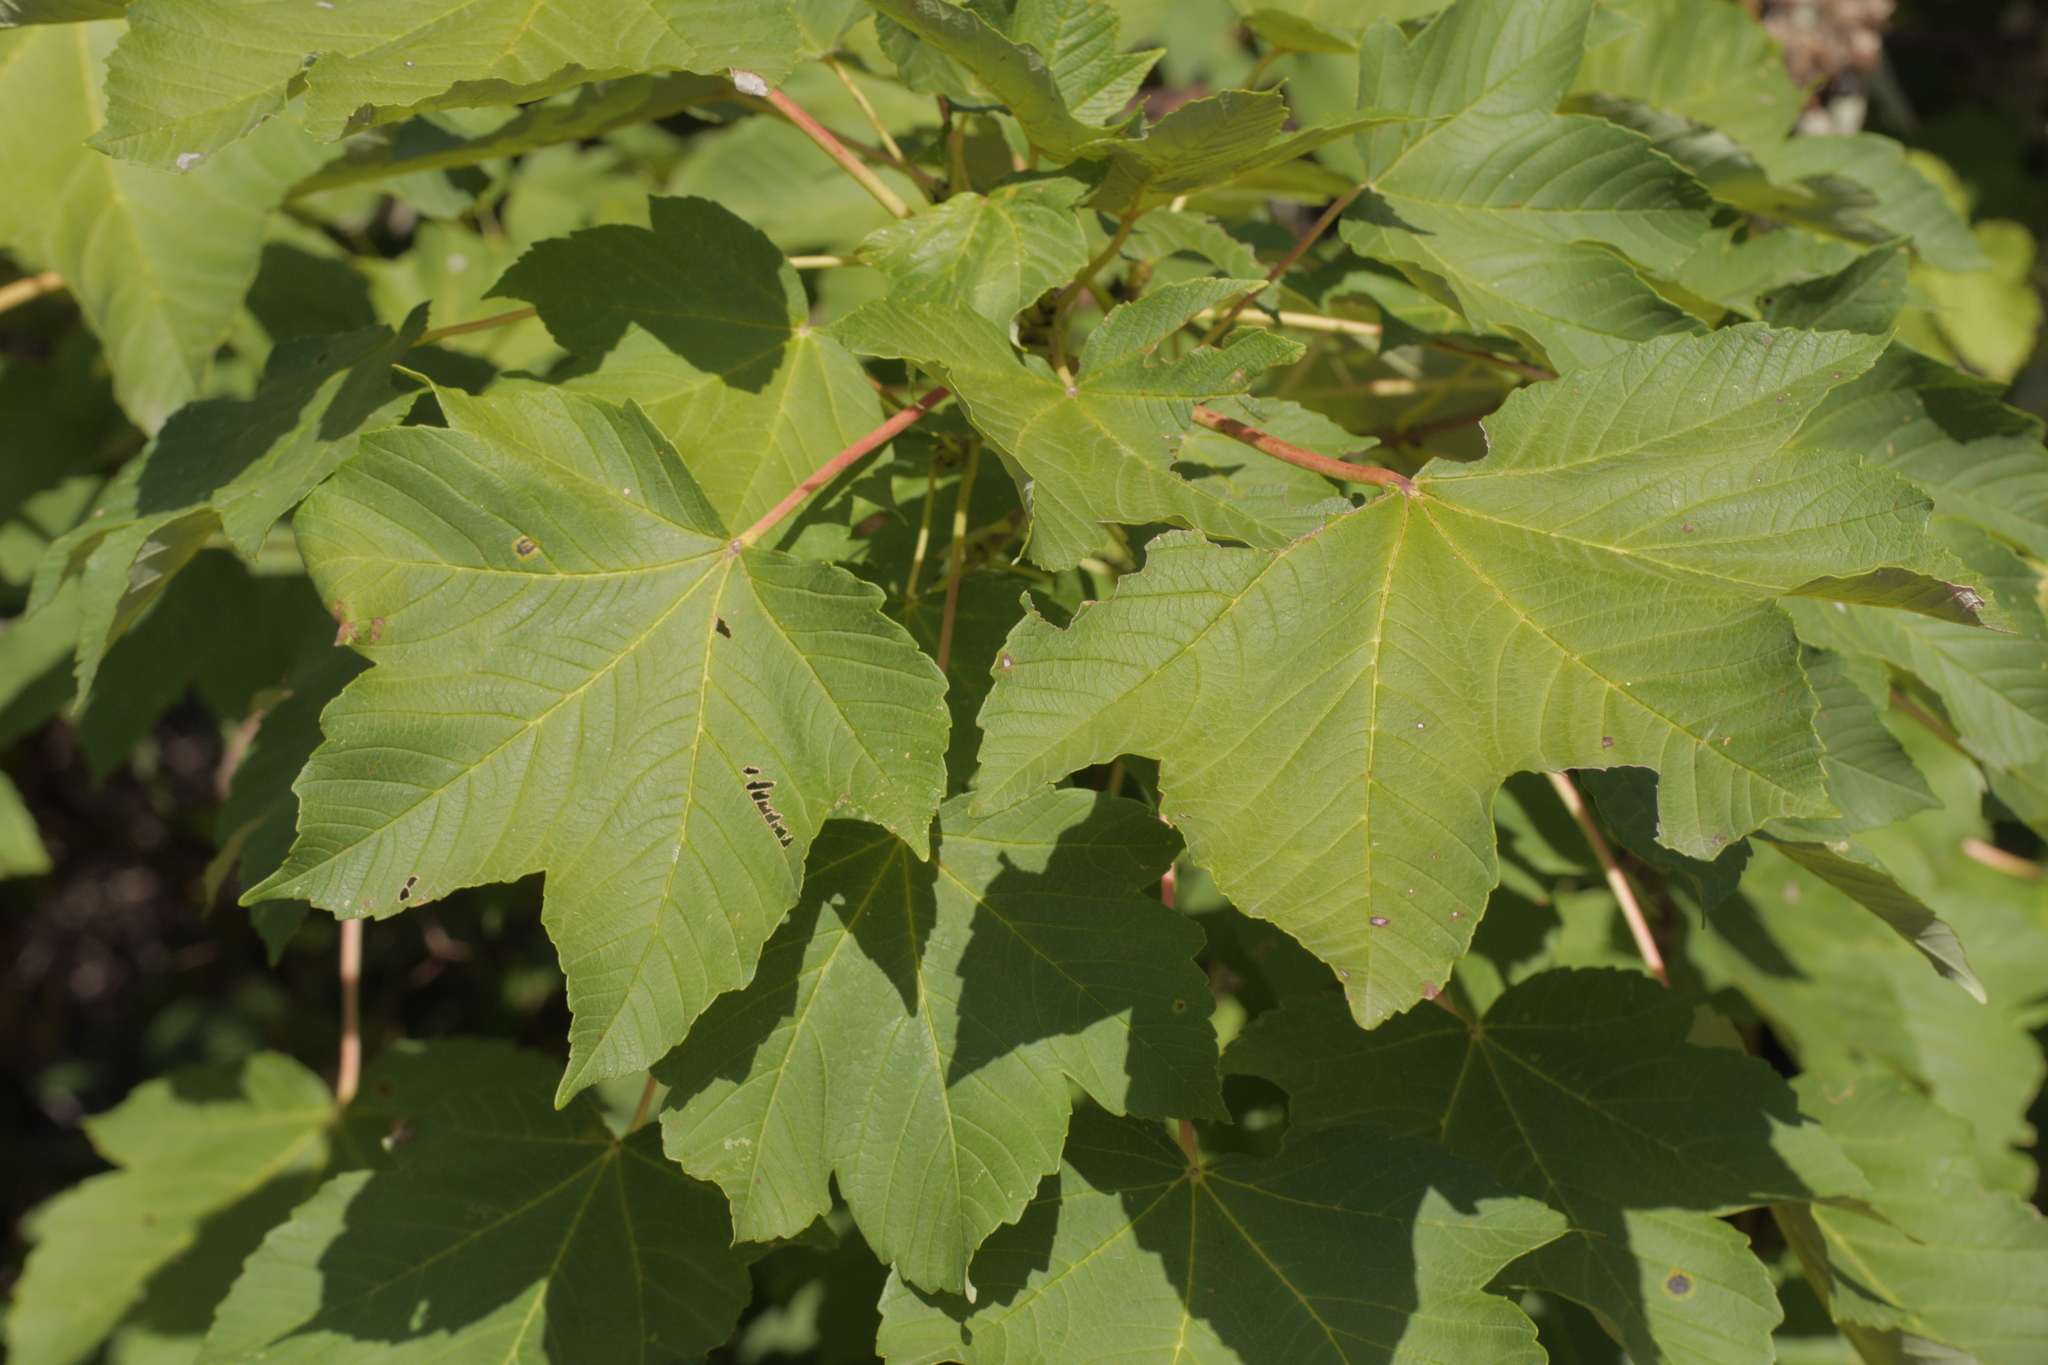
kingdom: Plantae
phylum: Tracheophyta
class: Magnoliopsida
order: Sapindales
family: Sapindaceae
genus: Acer
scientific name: Acer pseudoplatanus
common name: Sycamore
